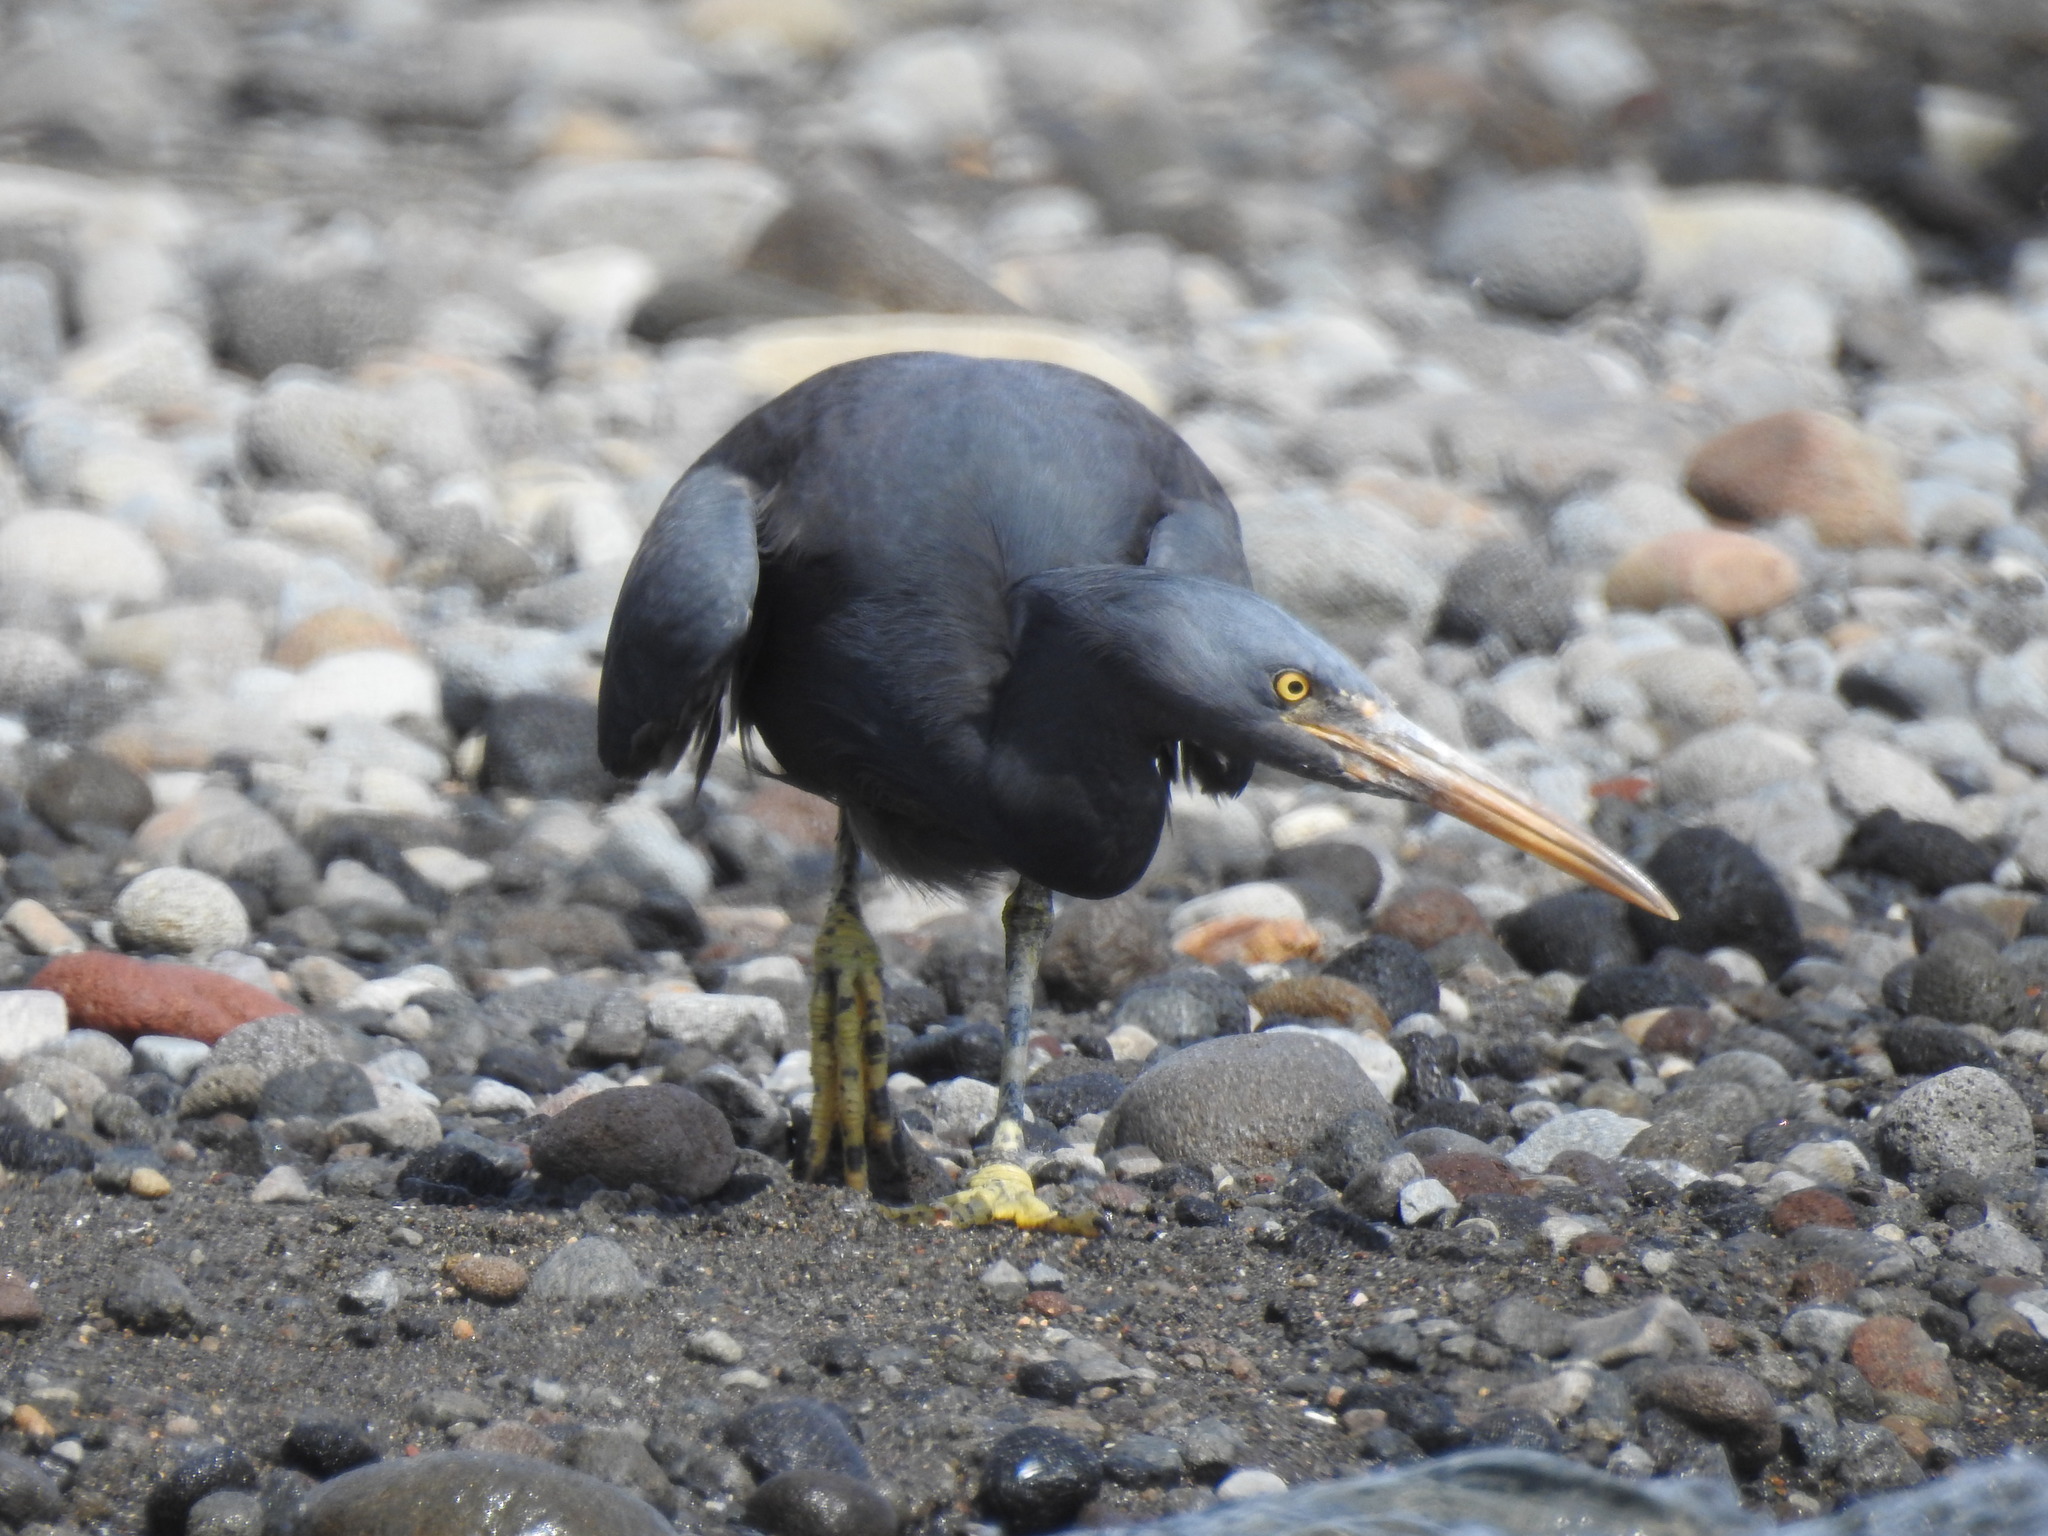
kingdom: Animalia
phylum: Chordata
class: Aves
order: Pelecaniformes
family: Ardeidae
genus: Egretta
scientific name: Egretta sacra
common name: Pacific reef heron
